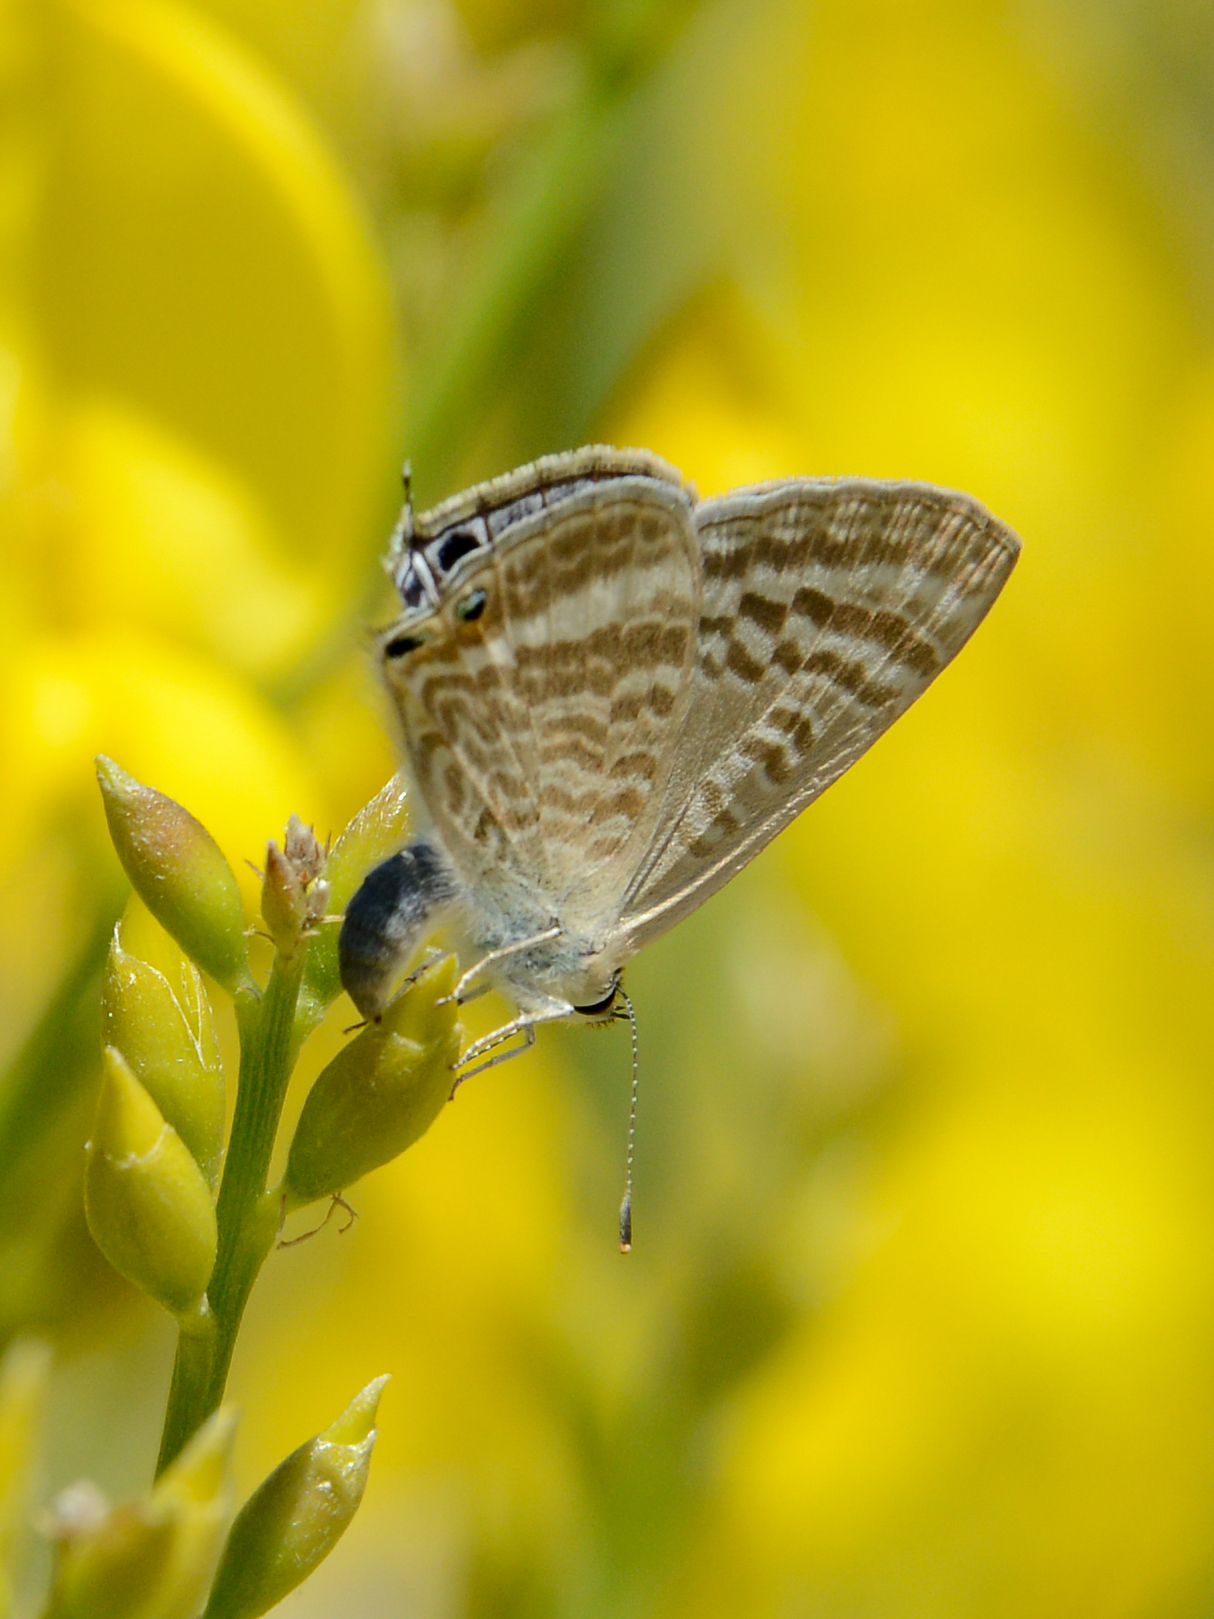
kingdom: Animalia
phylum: Arthropoda
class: Insecta
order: Lepidoptera
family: Lycaenidae
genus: Lampides
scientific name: Lampides boeticus
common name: Long-tailed blue
